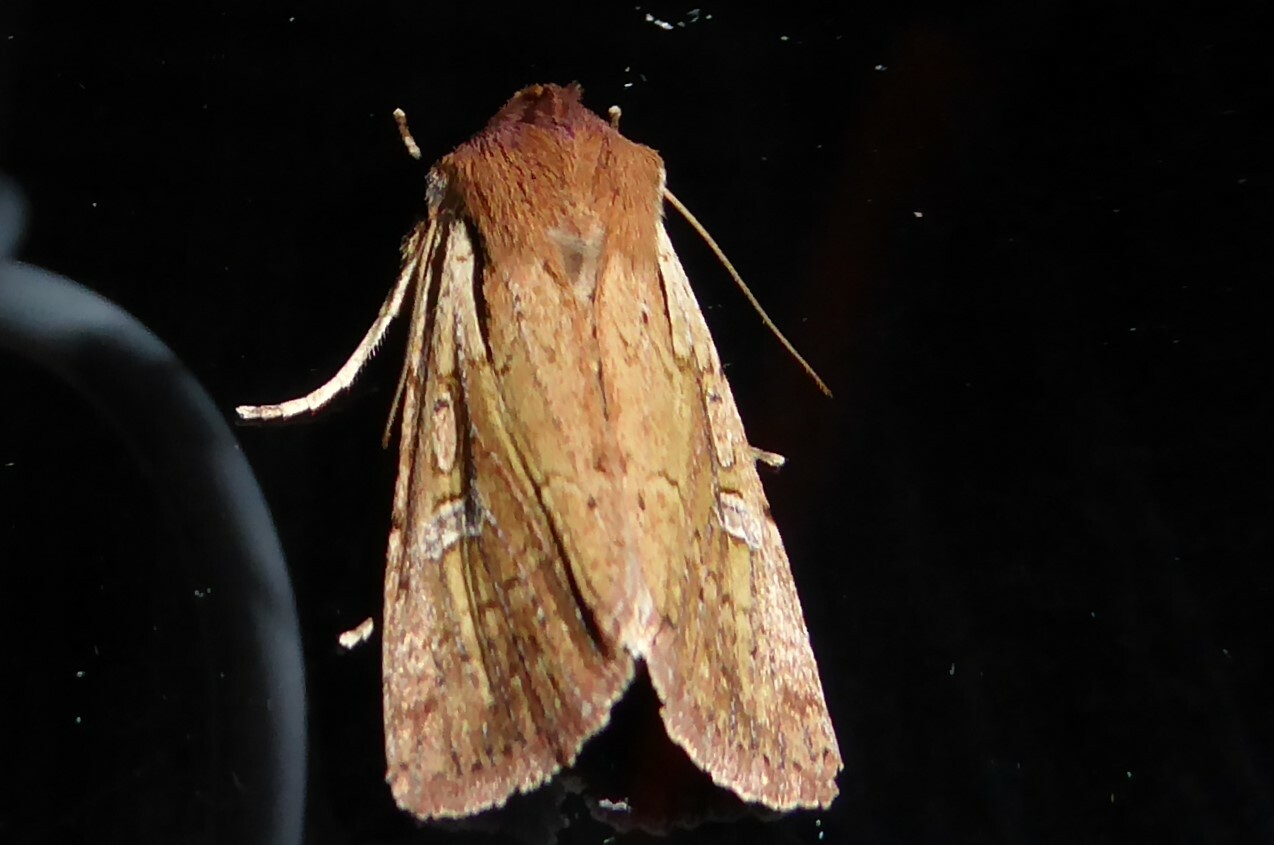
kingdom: Animalia
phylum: Arthropoda
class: Insecta
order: Lepidoptera
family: Noctuidae
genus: Ichneutica
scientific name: Ichneutica atristriga
